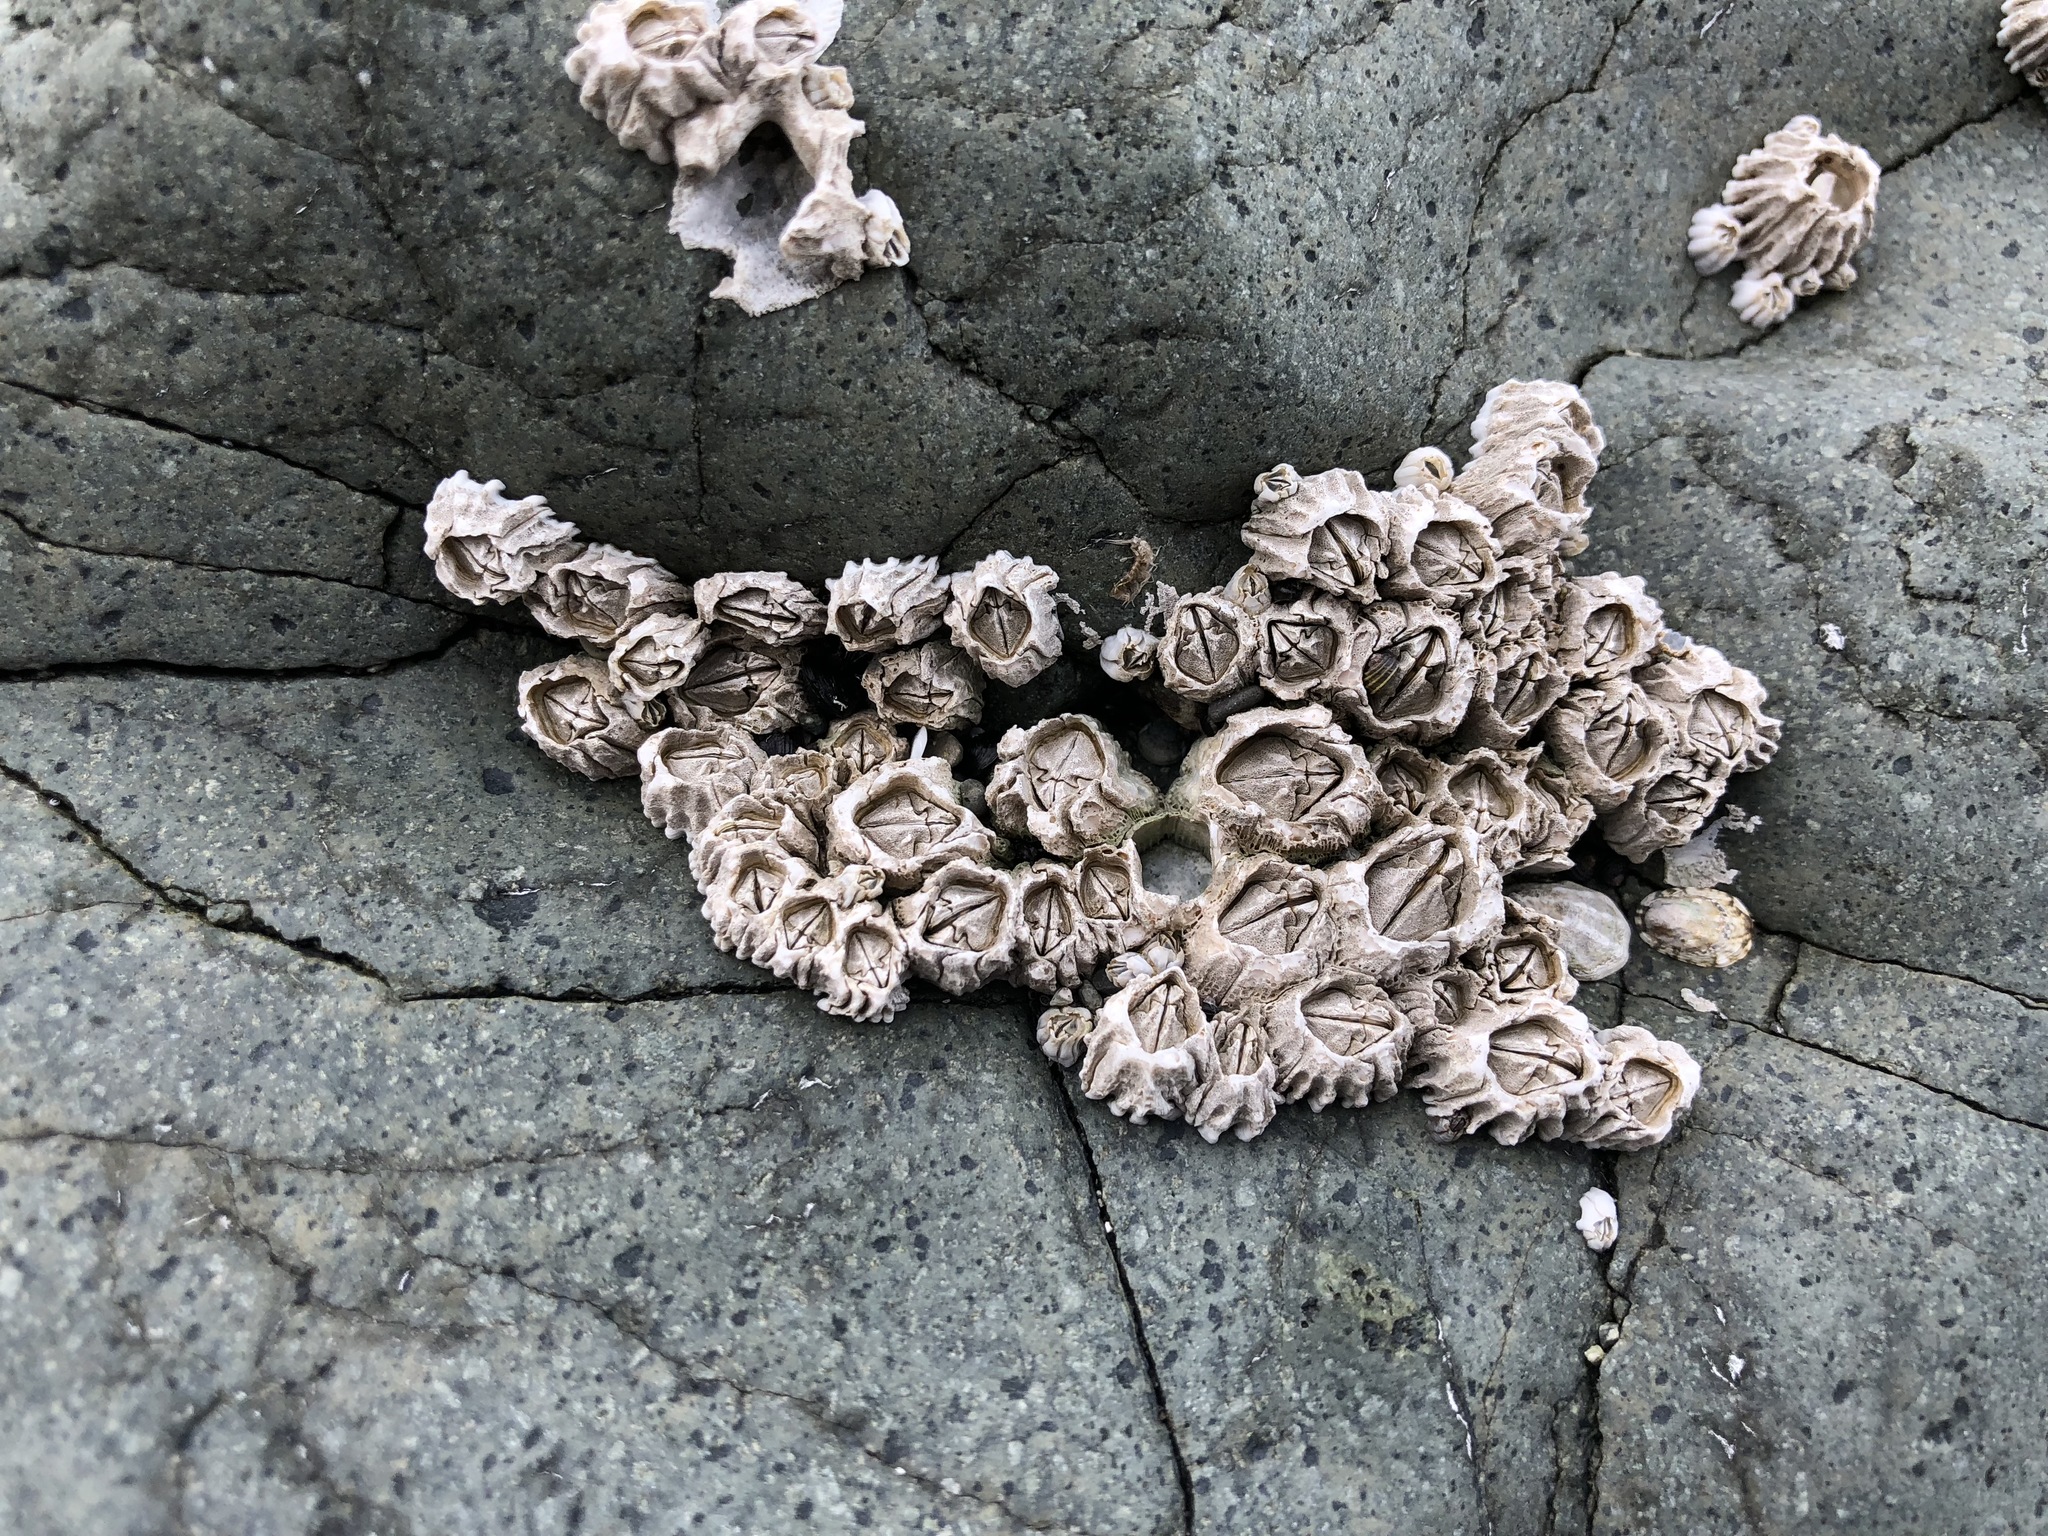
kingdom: Animalia
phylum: Arthropoda
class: Maxillopoda
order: Sessilia
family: Balanidae
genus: Balanus
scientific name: Balanus glandula
